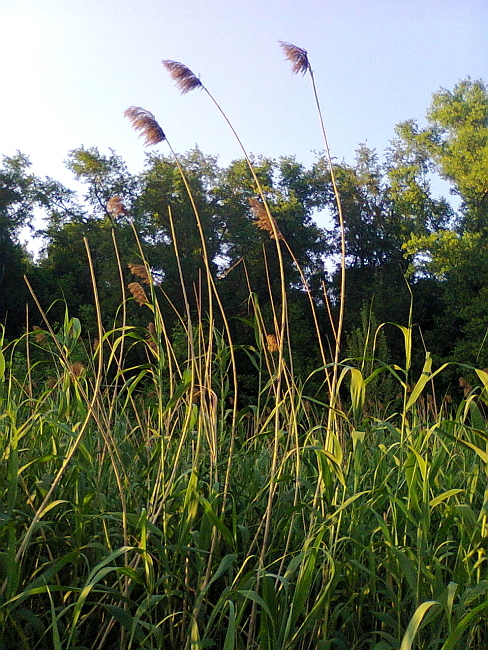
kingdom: Plantae
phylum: Tracheophyta
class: Liliopsida
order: Poales
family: Poaceae
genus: Phragmites
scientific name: Phragmites australis
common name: Common reed
